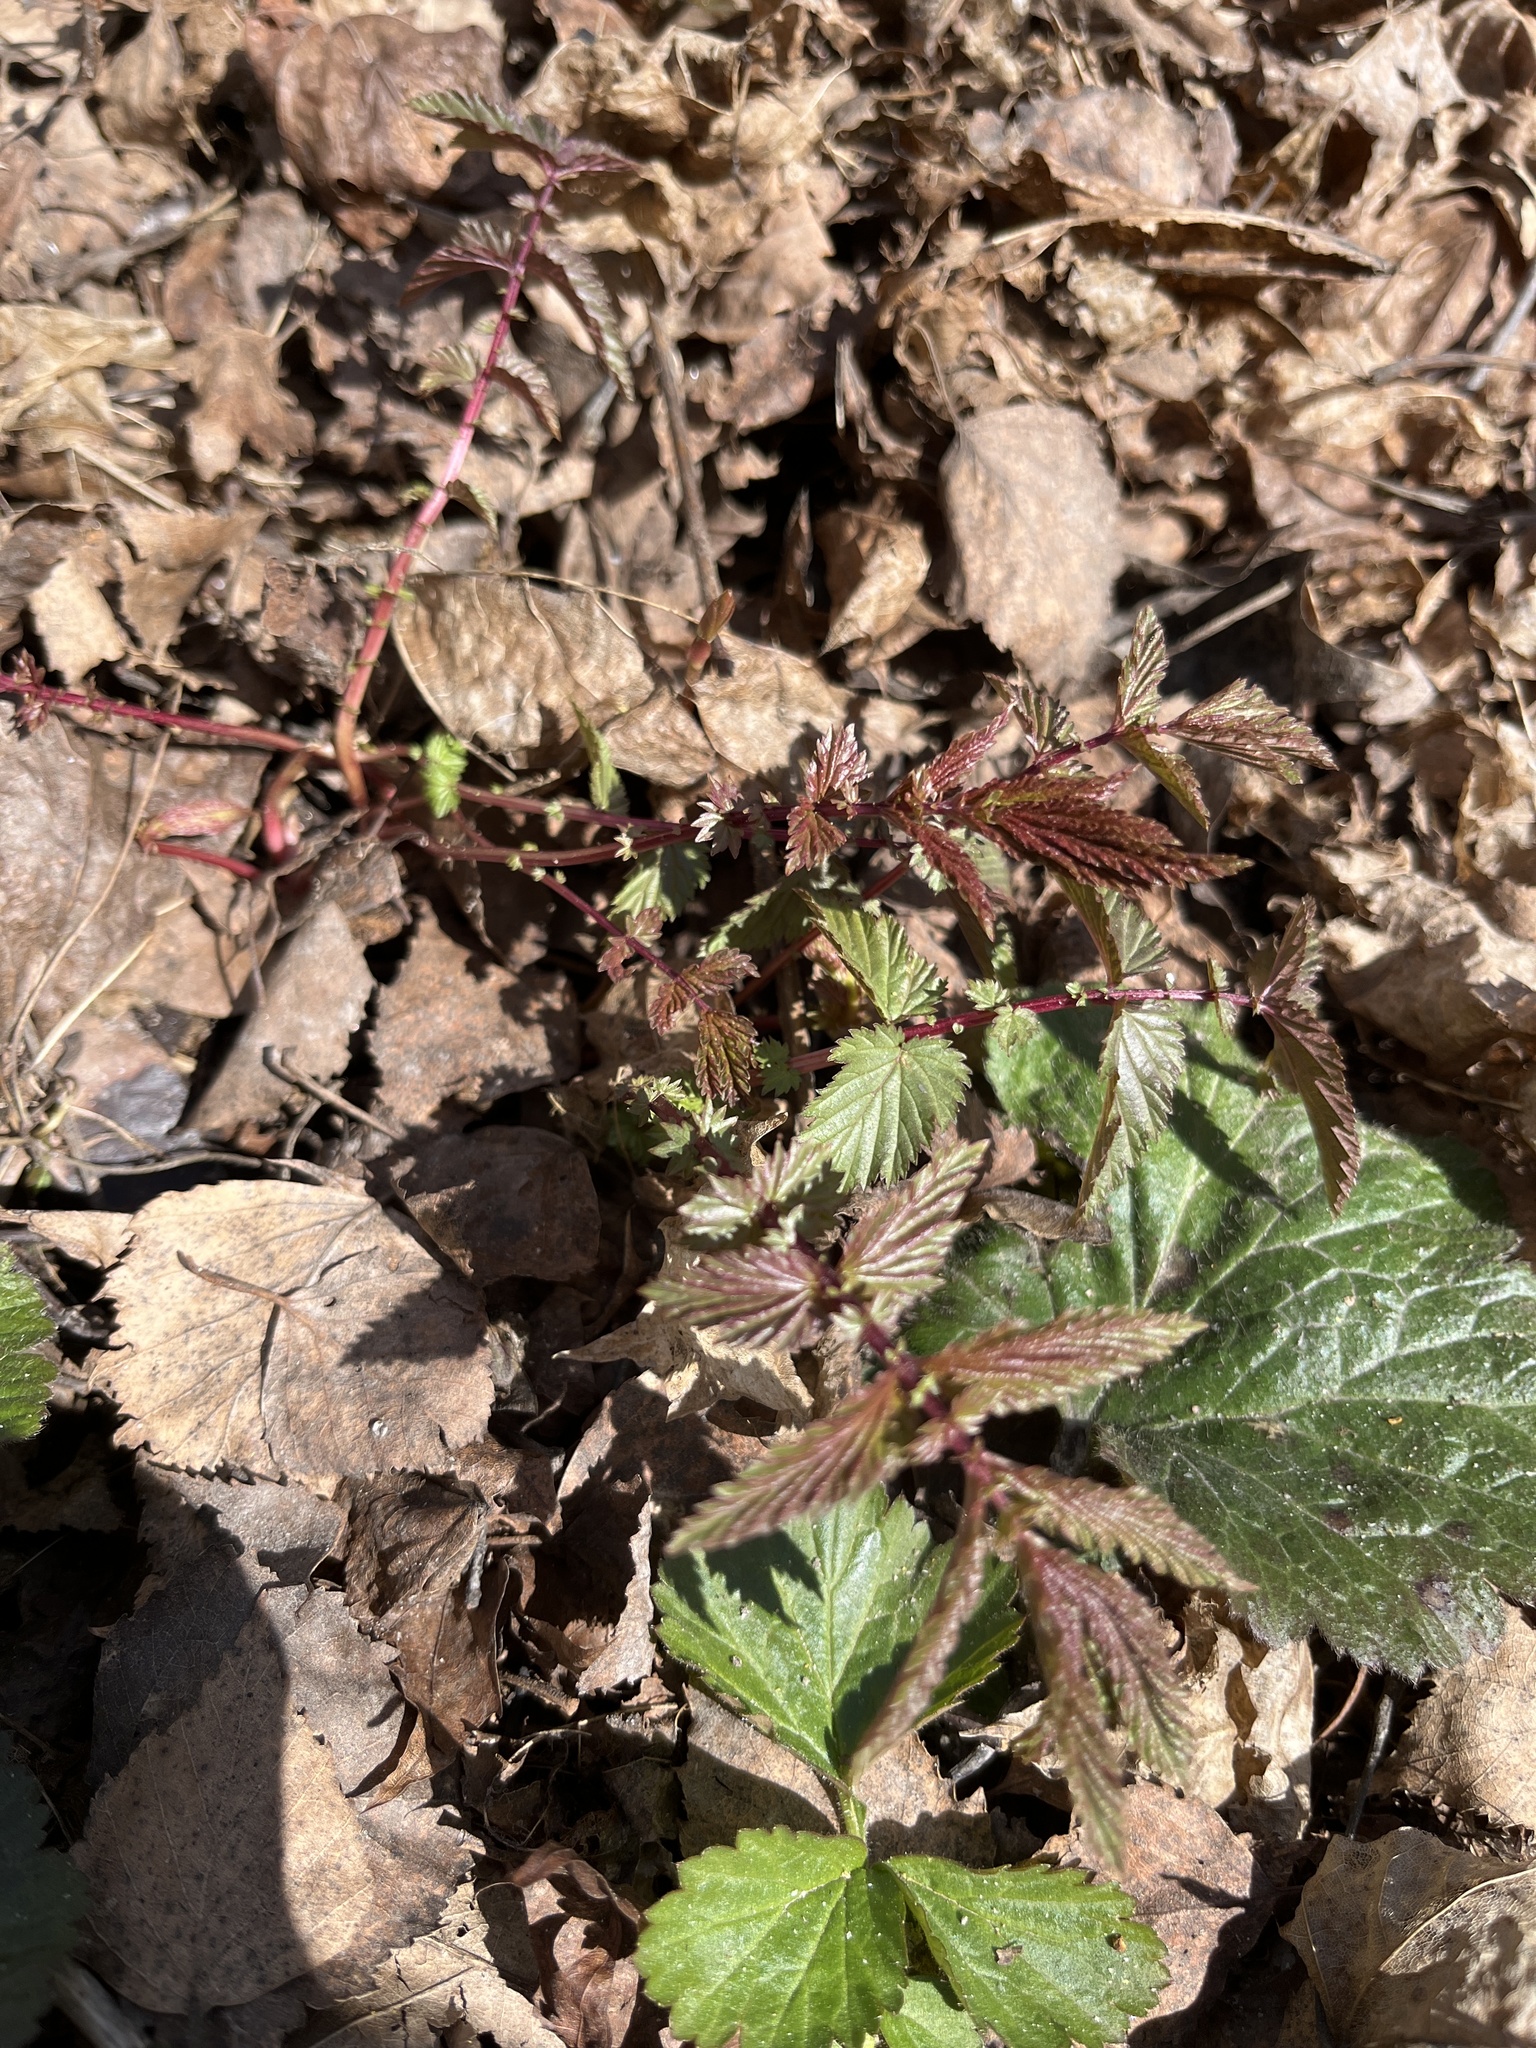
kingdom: Plantae
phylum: Tracheophyta
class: Magnoliopsida
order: Rosales
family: Rosaceae
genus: Filipendula
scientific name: Filipendula ulmaria
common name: Meadowsweet
